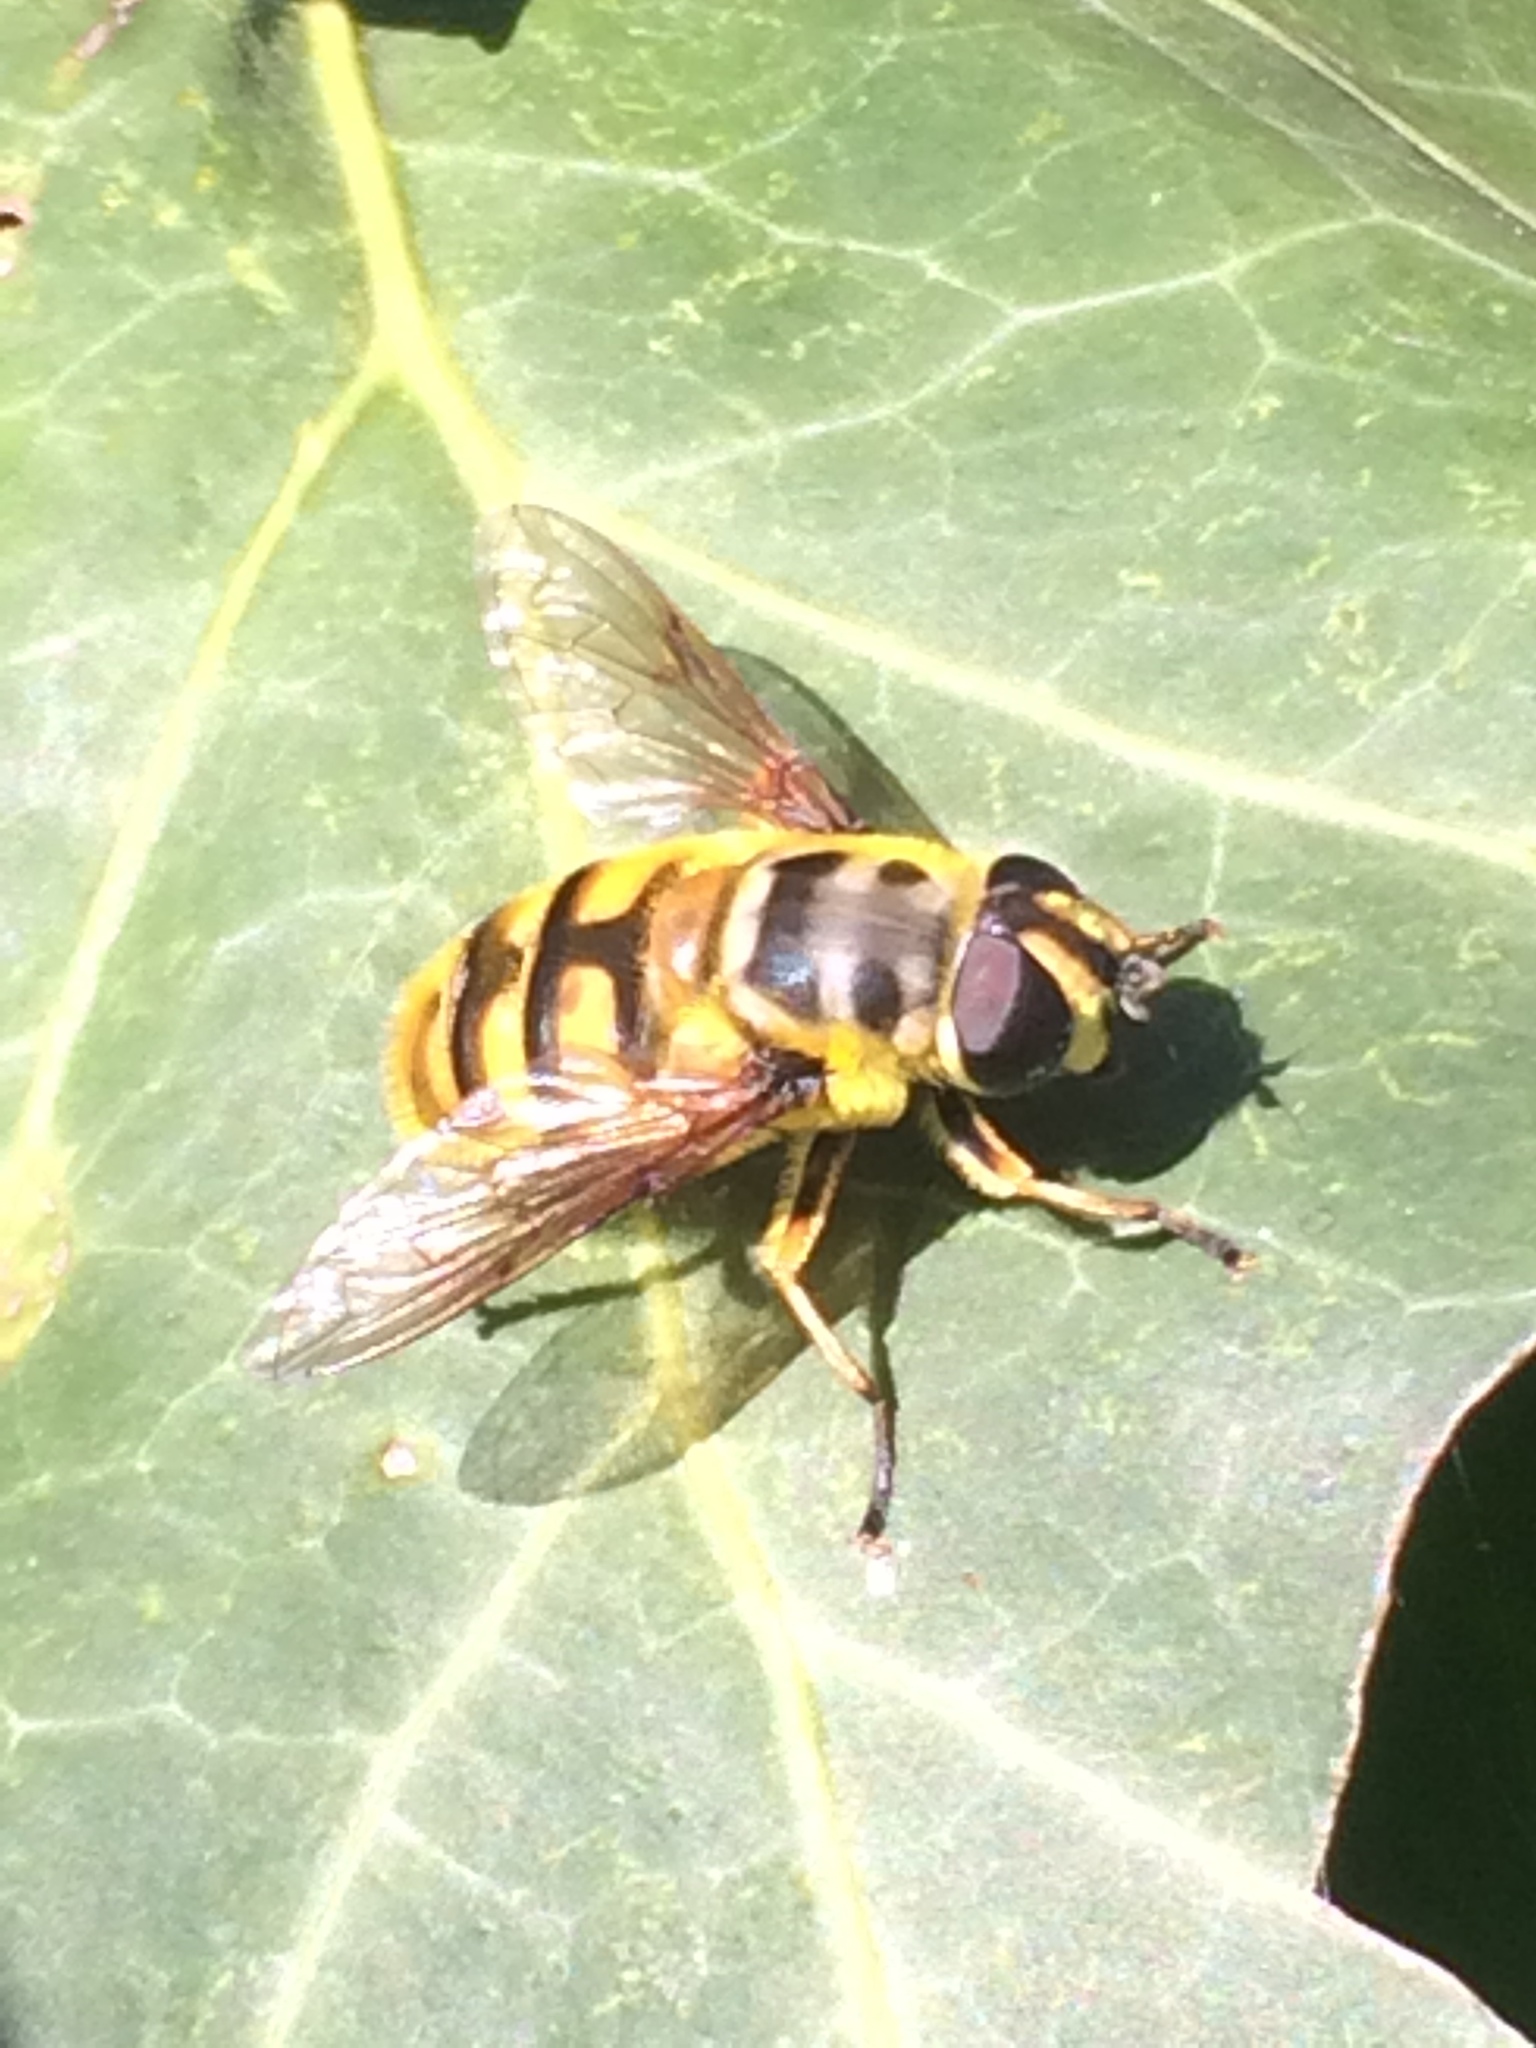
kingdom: Animalia
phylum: Arthropoda
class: Insecta
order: Diptera
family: Syrphidae
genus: Myathropa
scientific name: Myathropa florea
